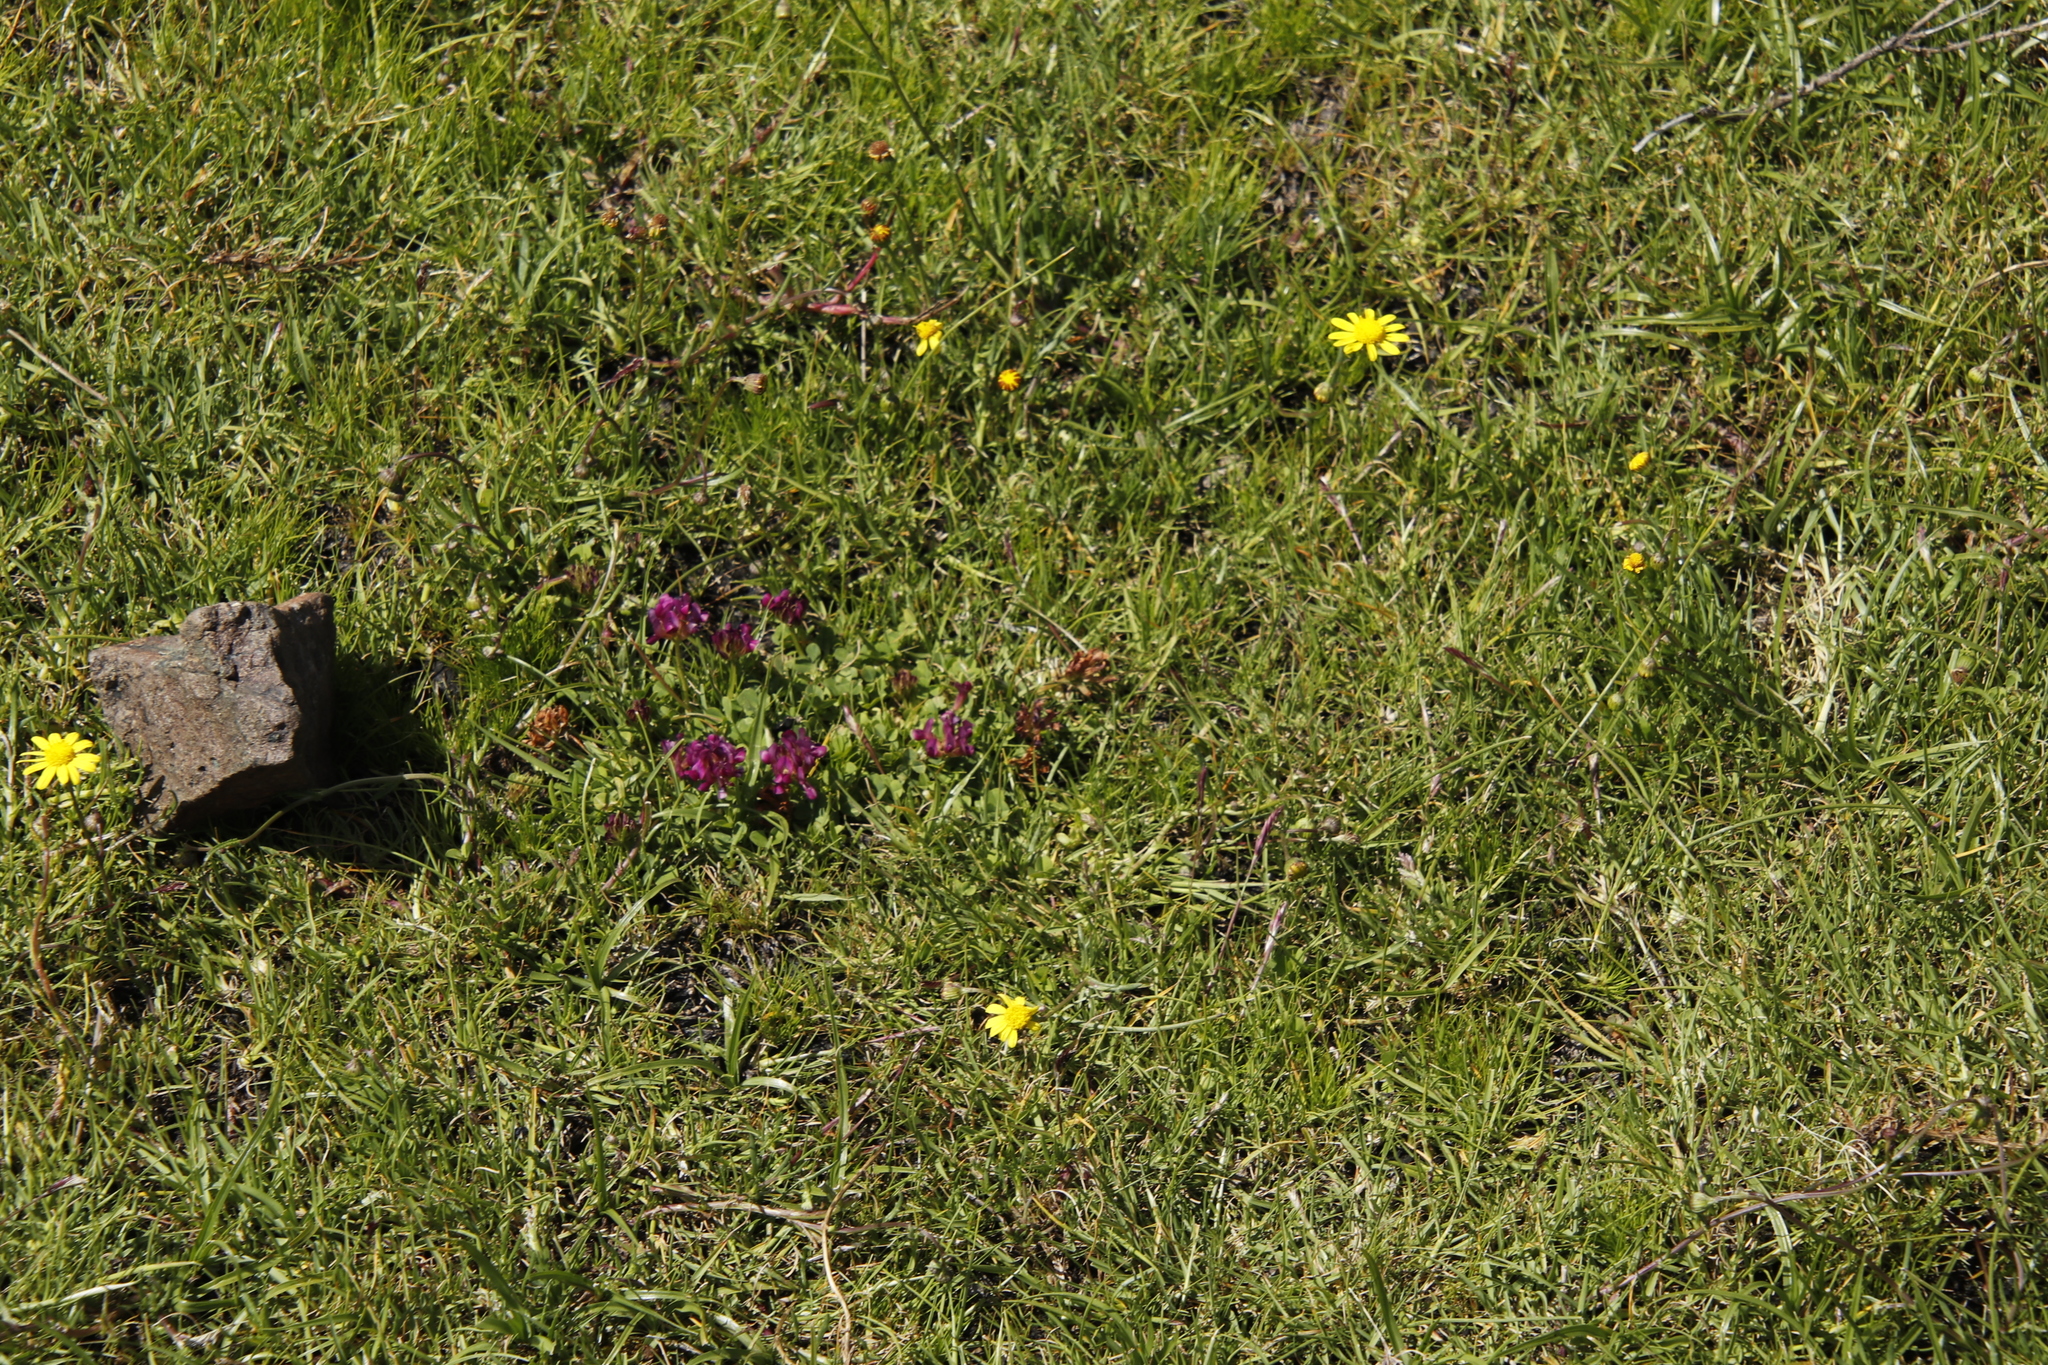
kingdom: Plantae
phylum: Tracheophyta
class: Magnoliopsida
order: Fabales
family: Fabaceae
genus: Trifolium
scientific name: Trifolium burchellianum
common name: Burchell's clover
